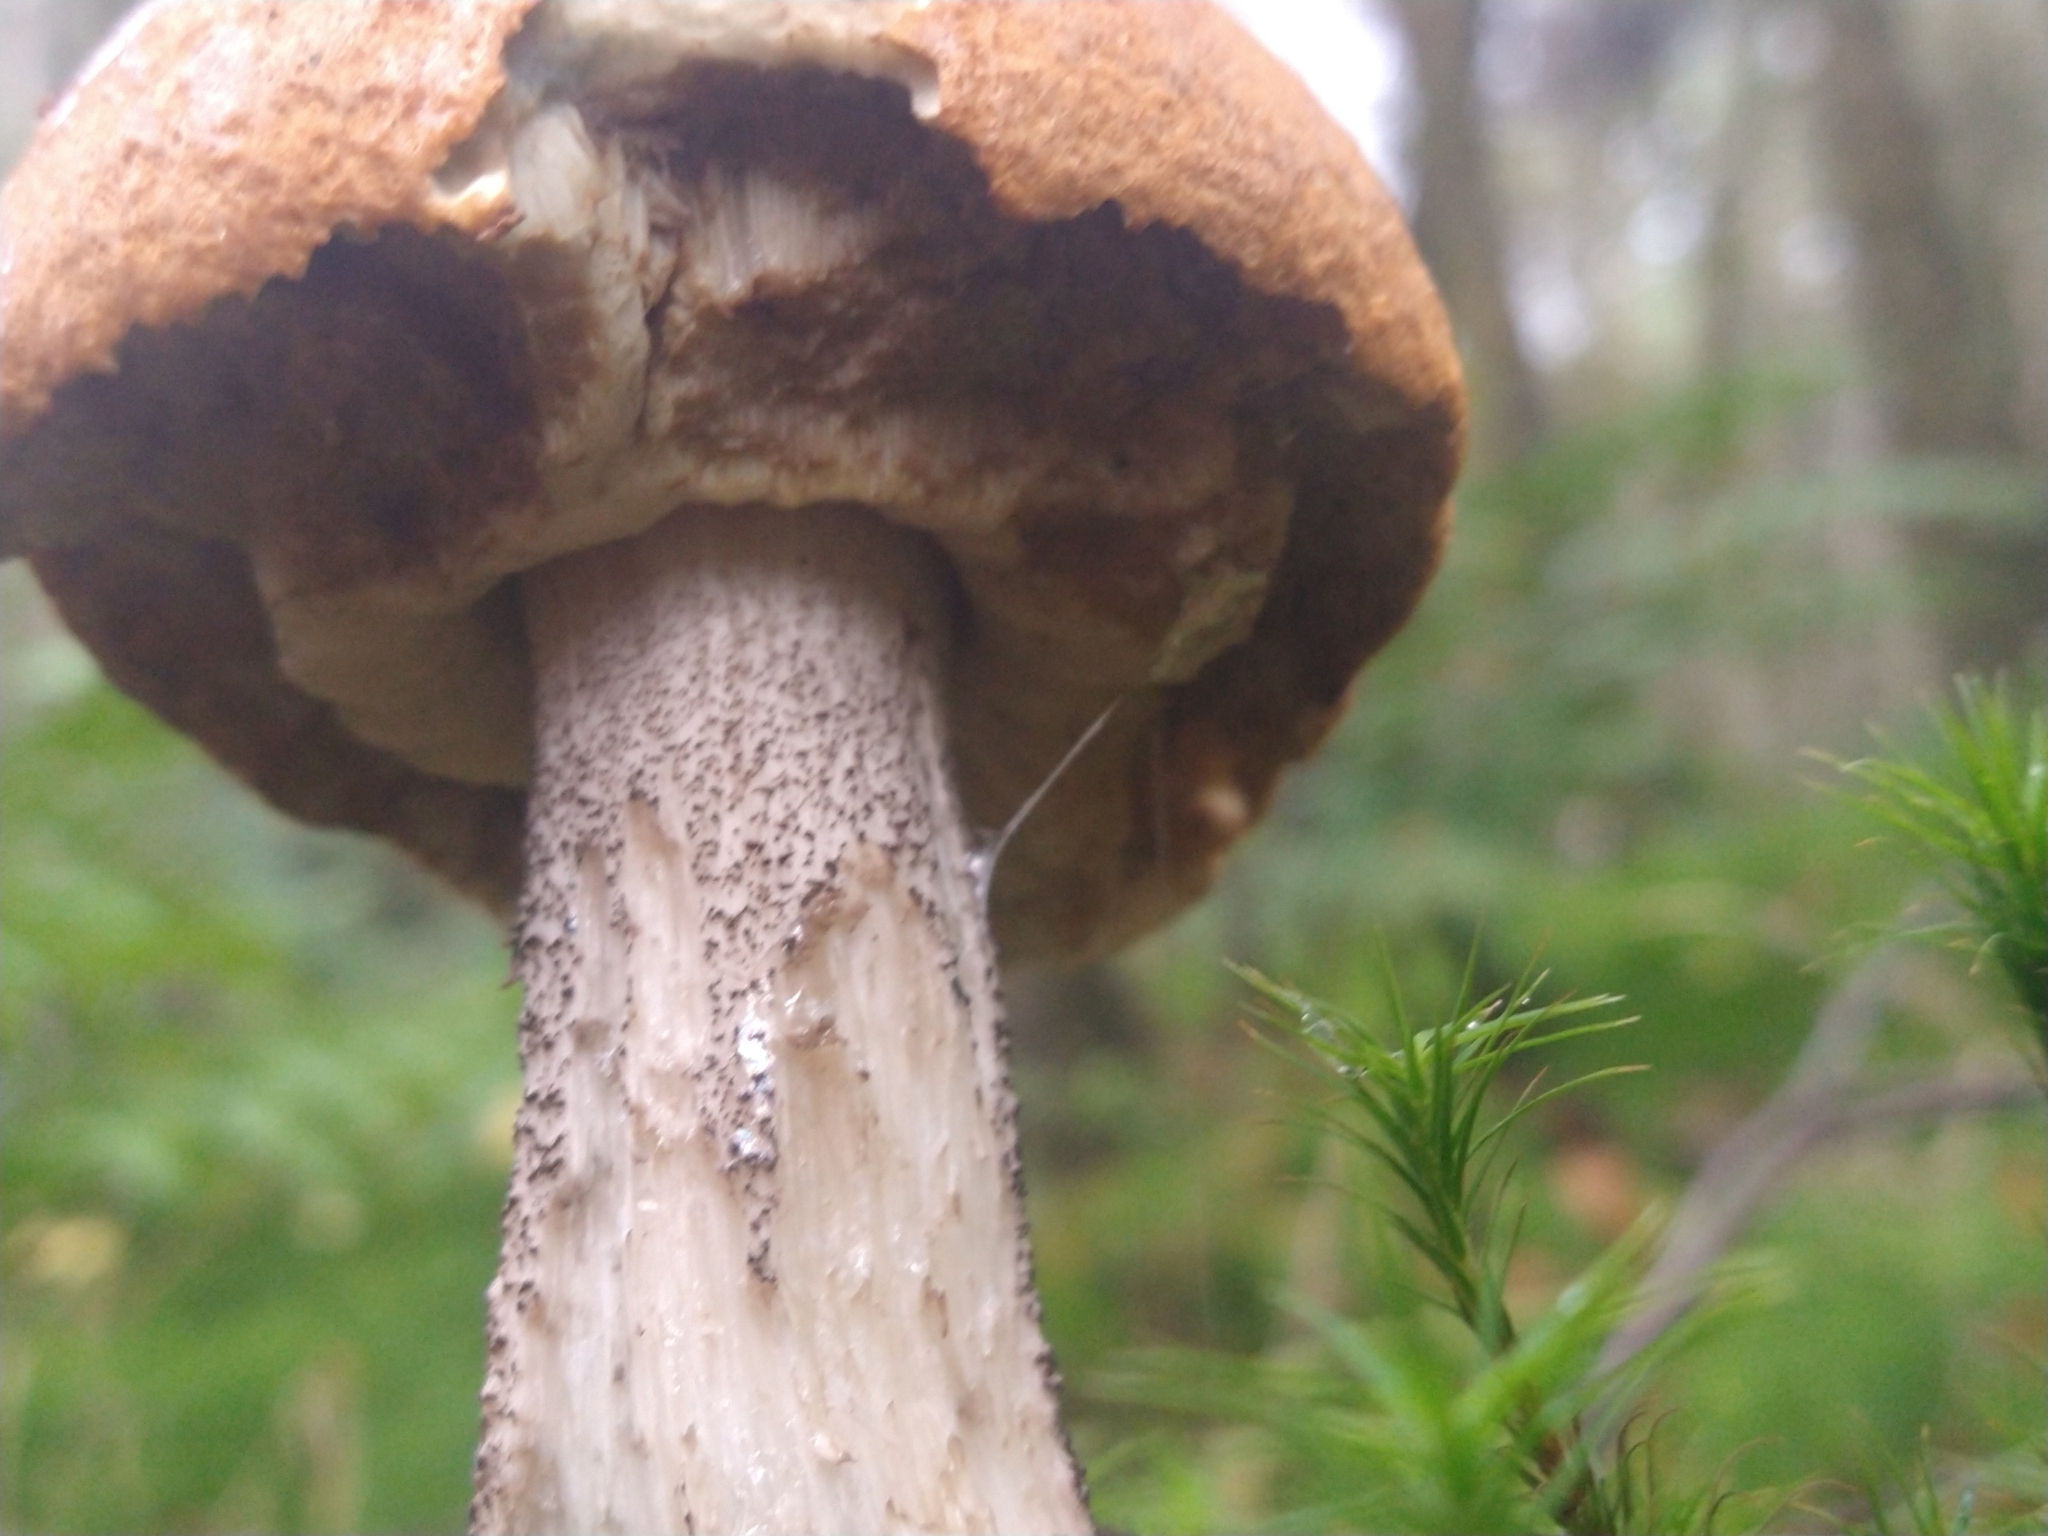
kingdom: Fungi
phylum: Basidiomycota
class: Agaricomycetes
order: Boletales
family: Boletaceae
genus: Leccinum
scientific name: Leccinum aurantiacum
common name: Orange bolete
